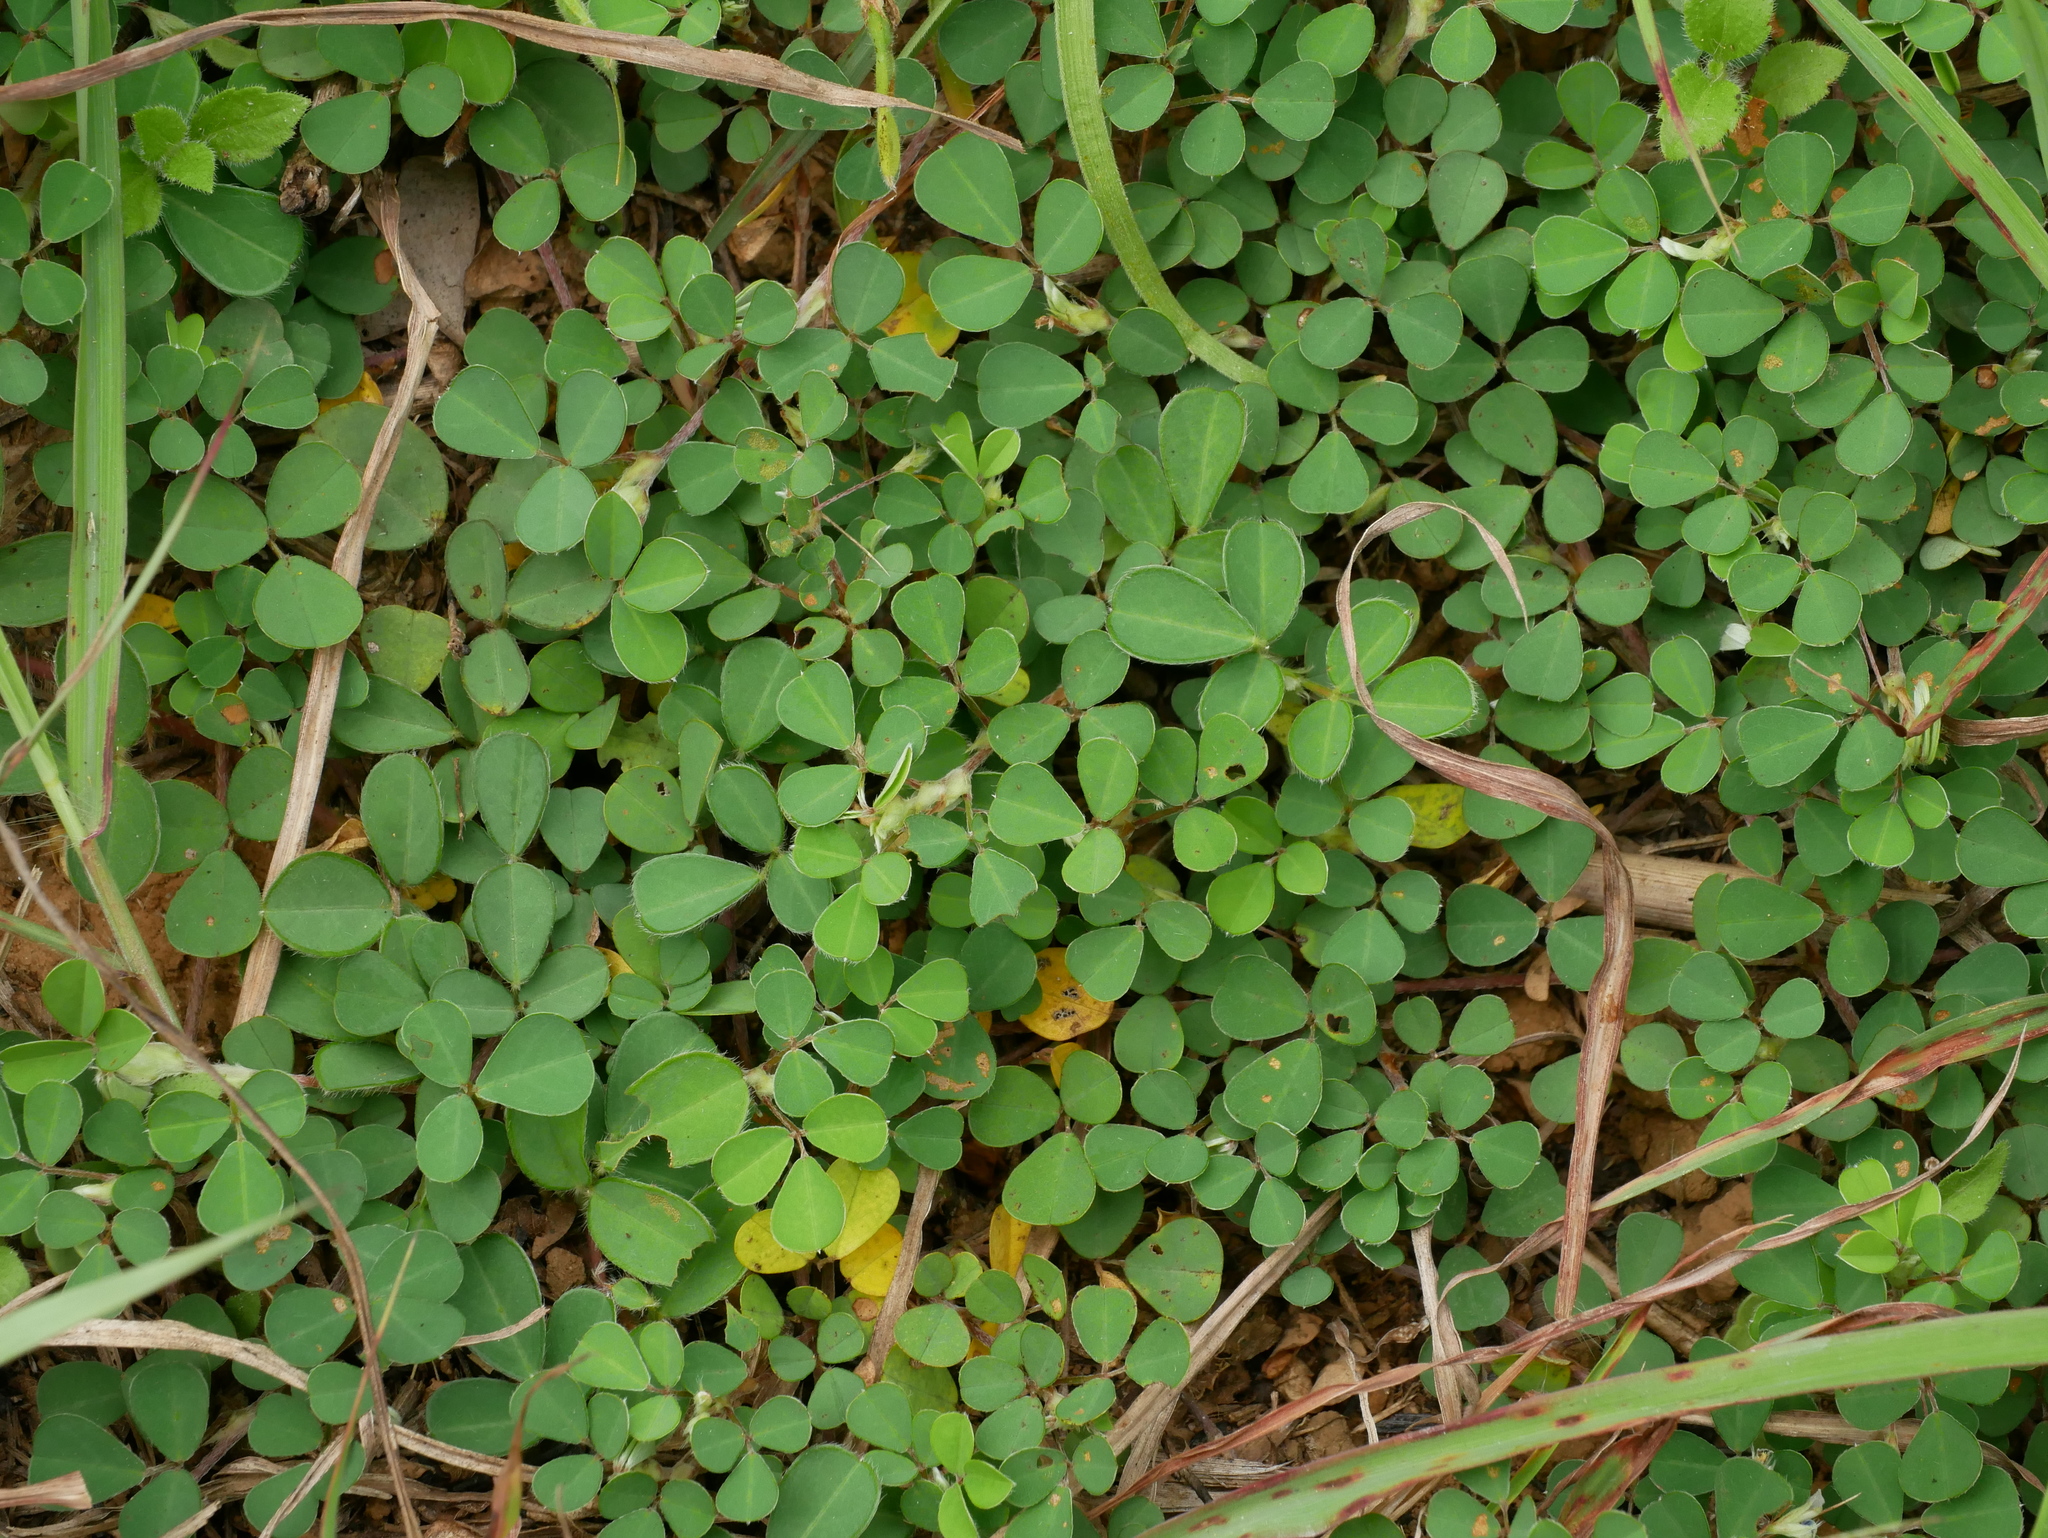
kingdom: Plantae
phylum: Tracheophyta
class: Magnoliopsida
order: Fabales
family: Fabaceae
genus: Grona
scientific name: Grona triflora
